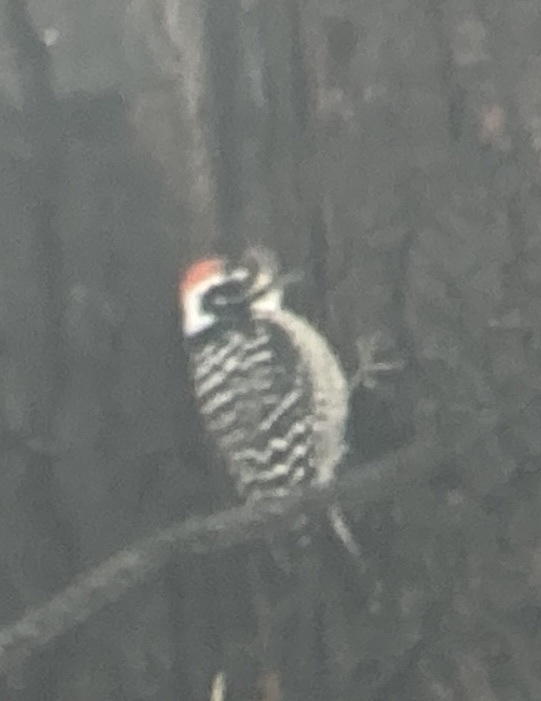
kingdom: Animalia
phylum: Chordata
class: Aves
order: Piciformes
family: Picidae
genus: Dryobates
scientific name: Dryobates nuttallii
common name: Nuttall's woodpecker
